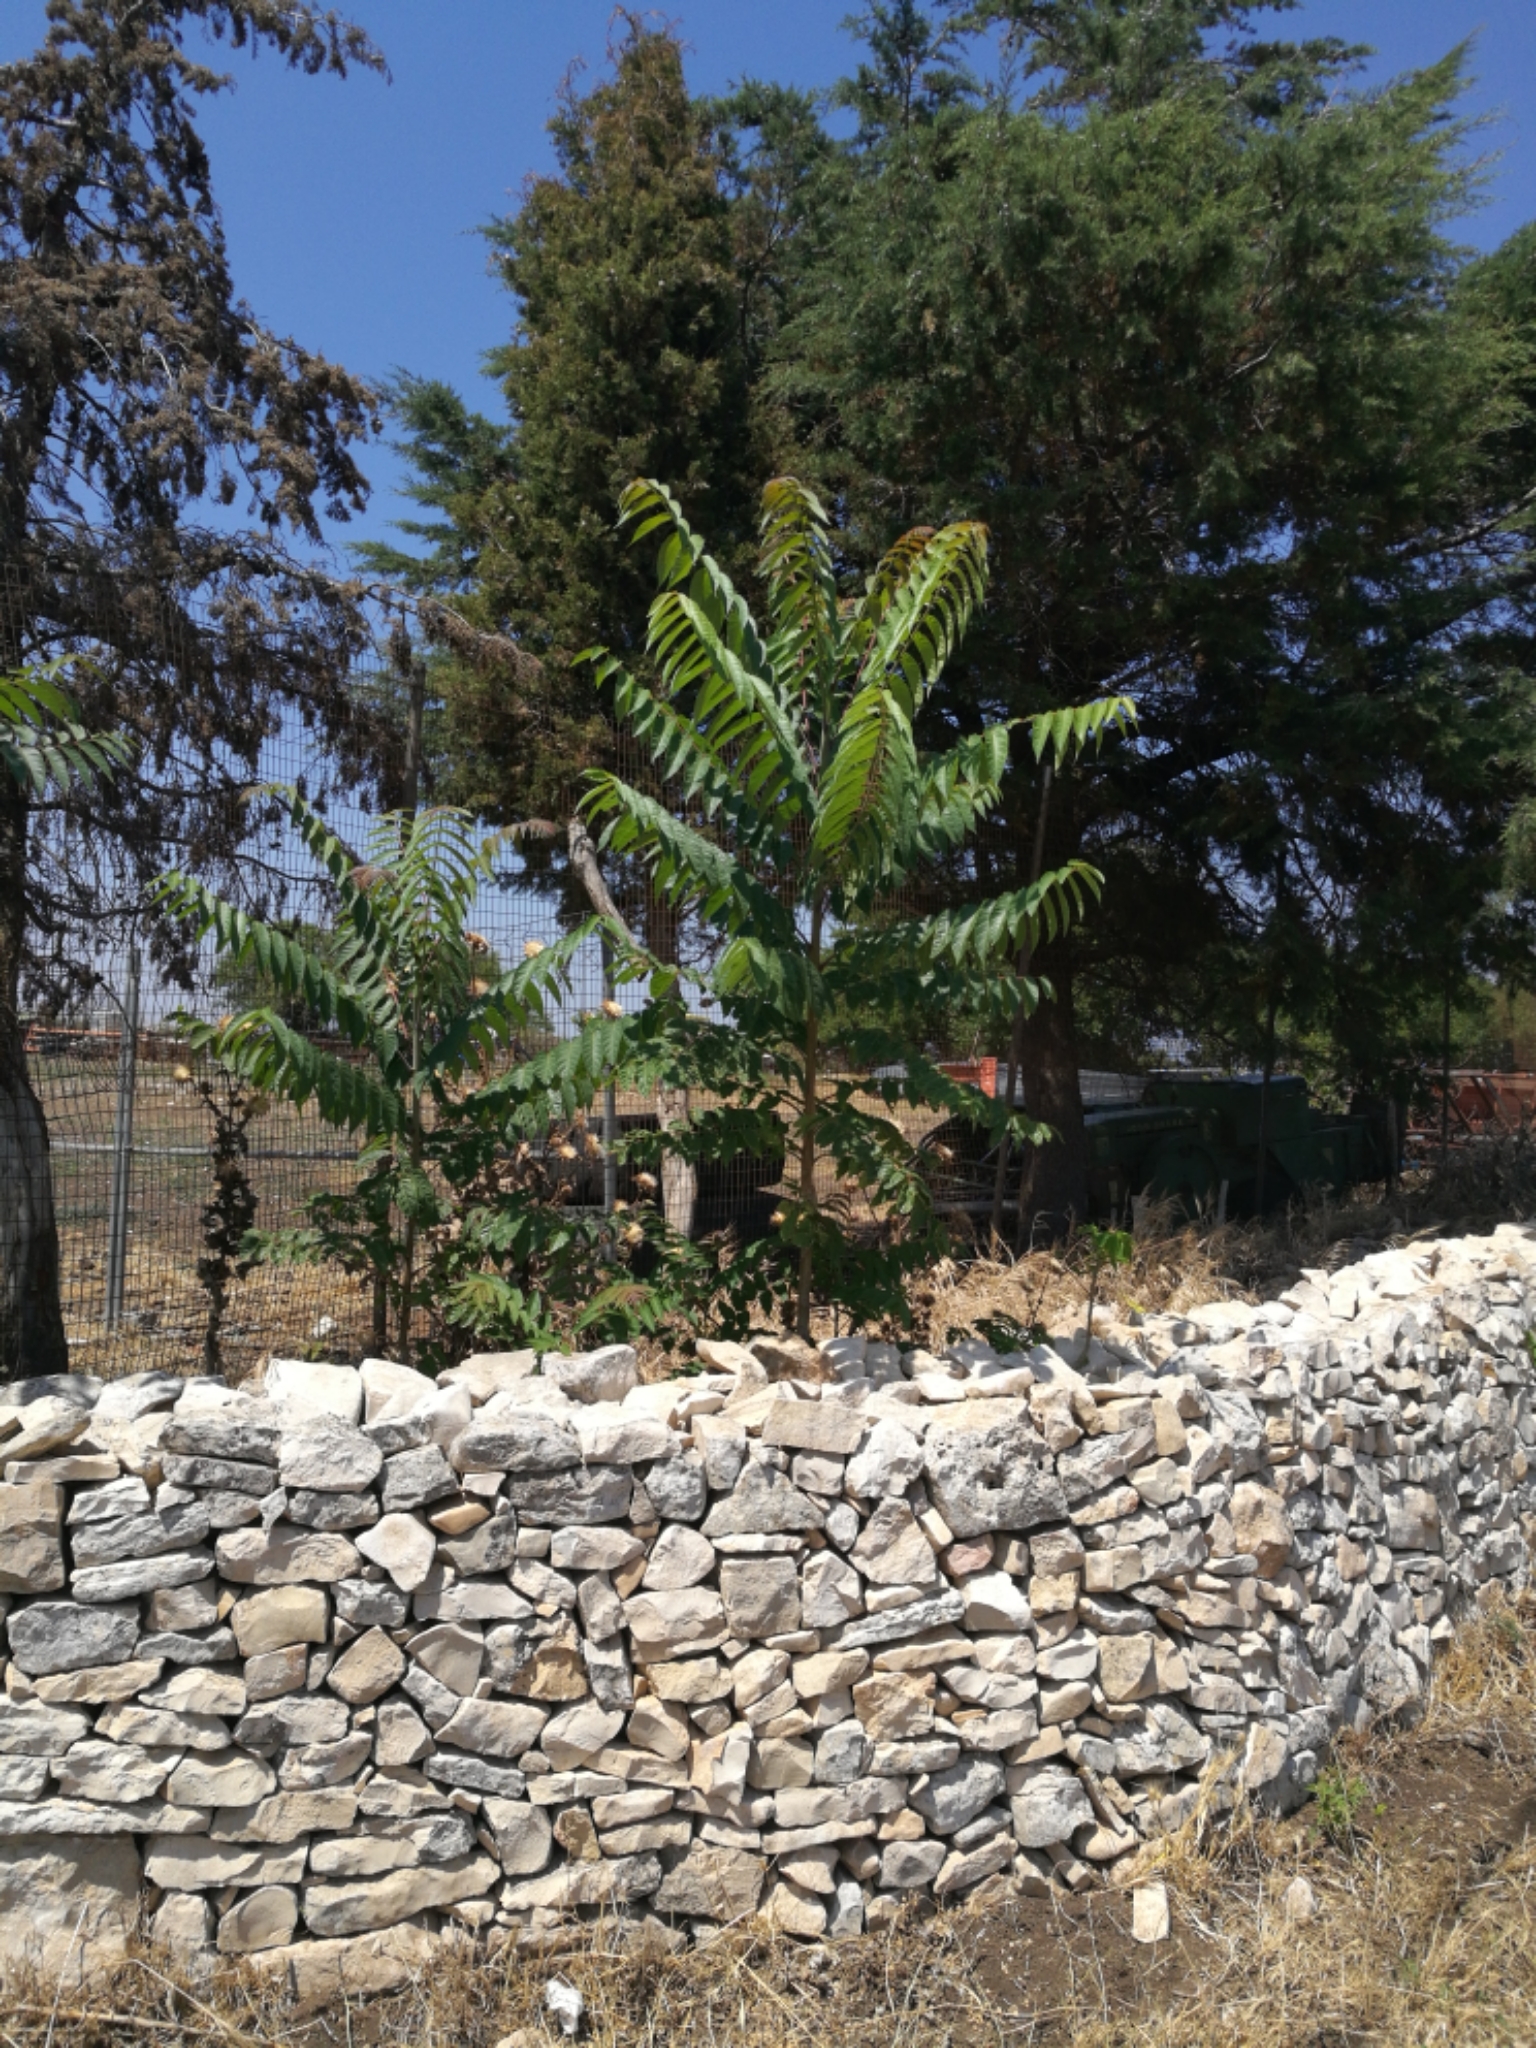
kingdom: Plantae
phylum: Tracheophyta
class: Magnoliopsida
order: Sapindales
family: Simaroubaceae
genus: Ailanthus
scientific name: Ailanthus altissima
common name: Tree-of-heaven
